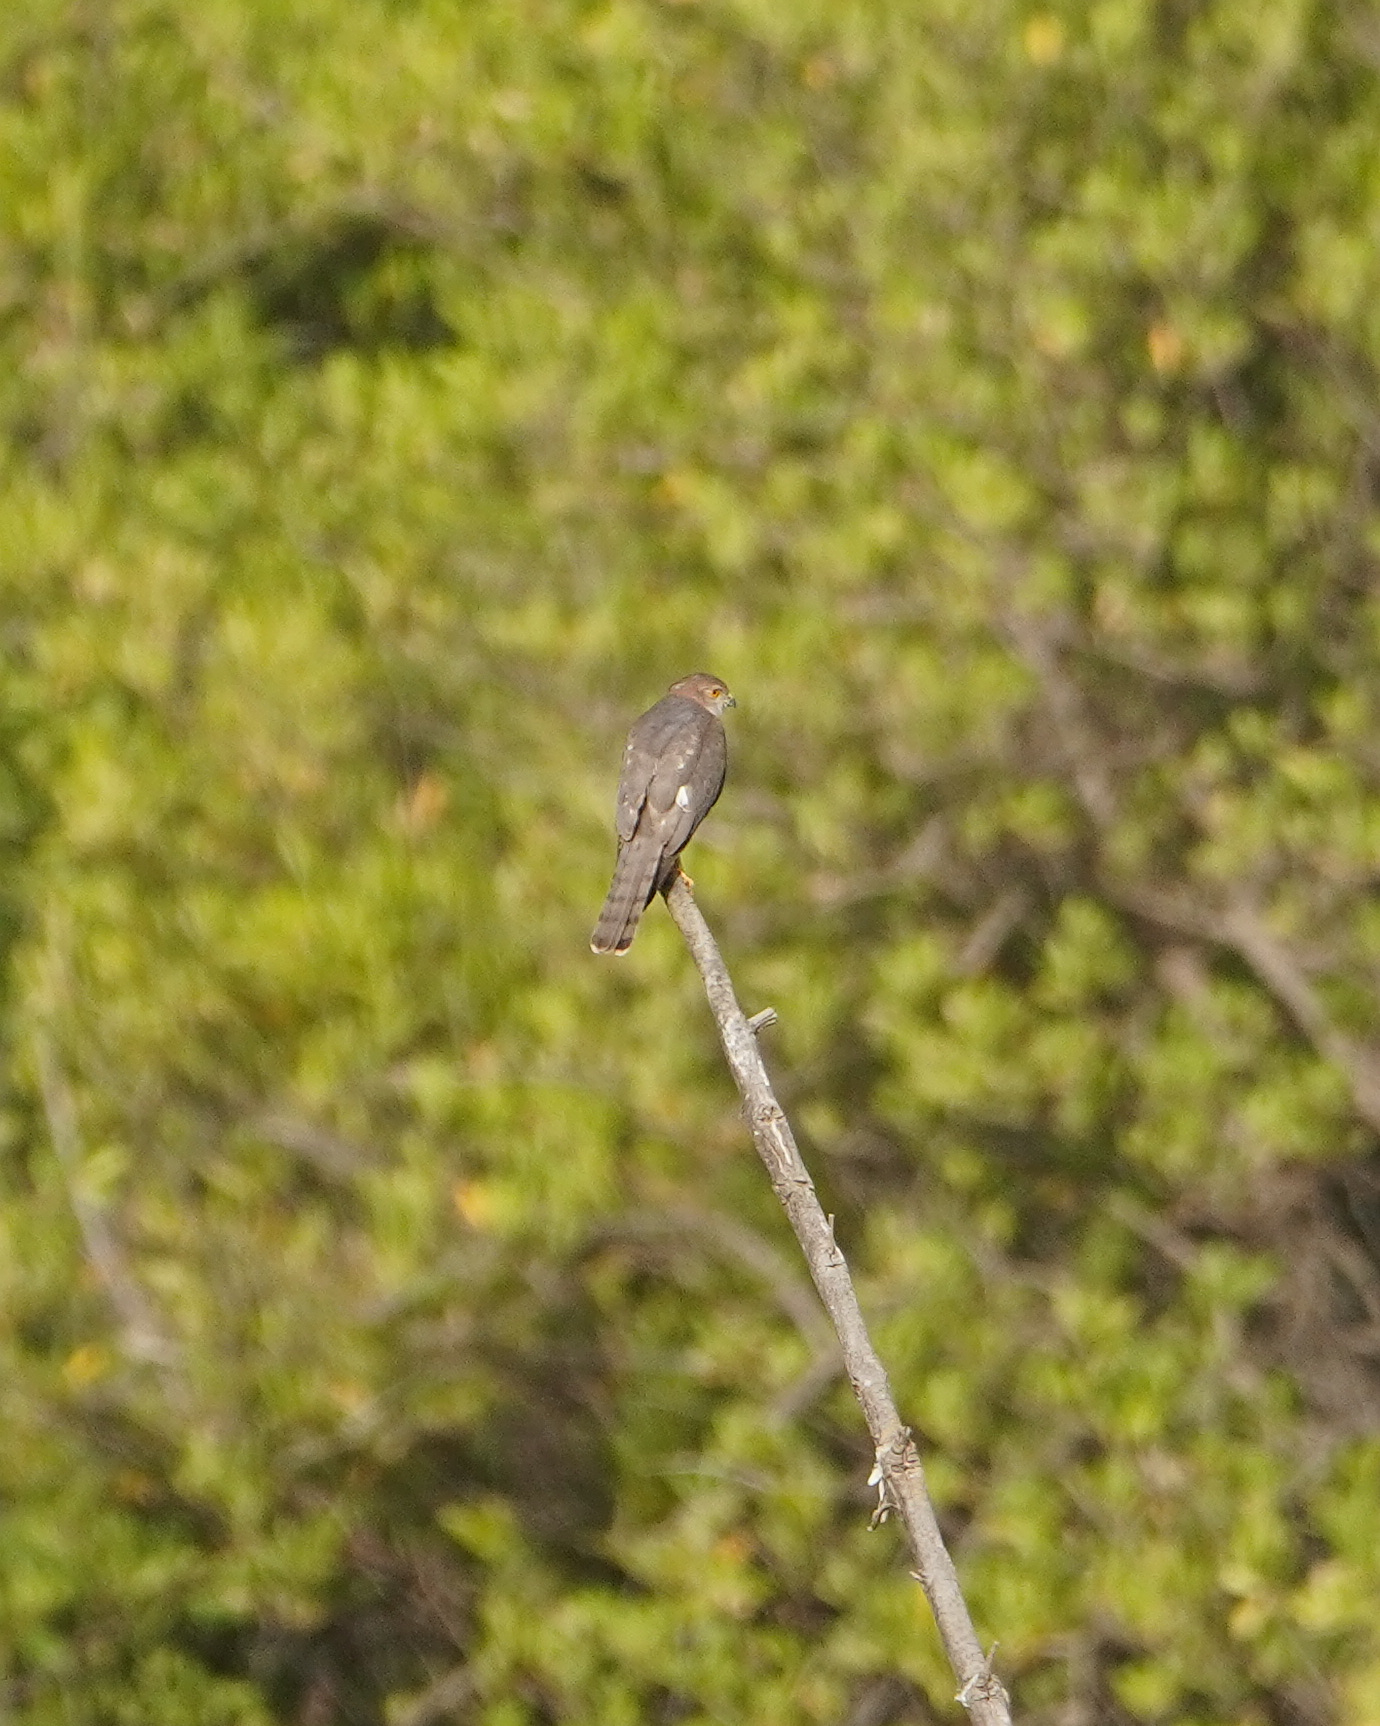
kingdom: Animalia
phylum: Chordata
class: Aves
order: Accipitriformes
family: Accipitridae
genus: Accipiter
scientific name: Accipiter badius
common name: Shikra
